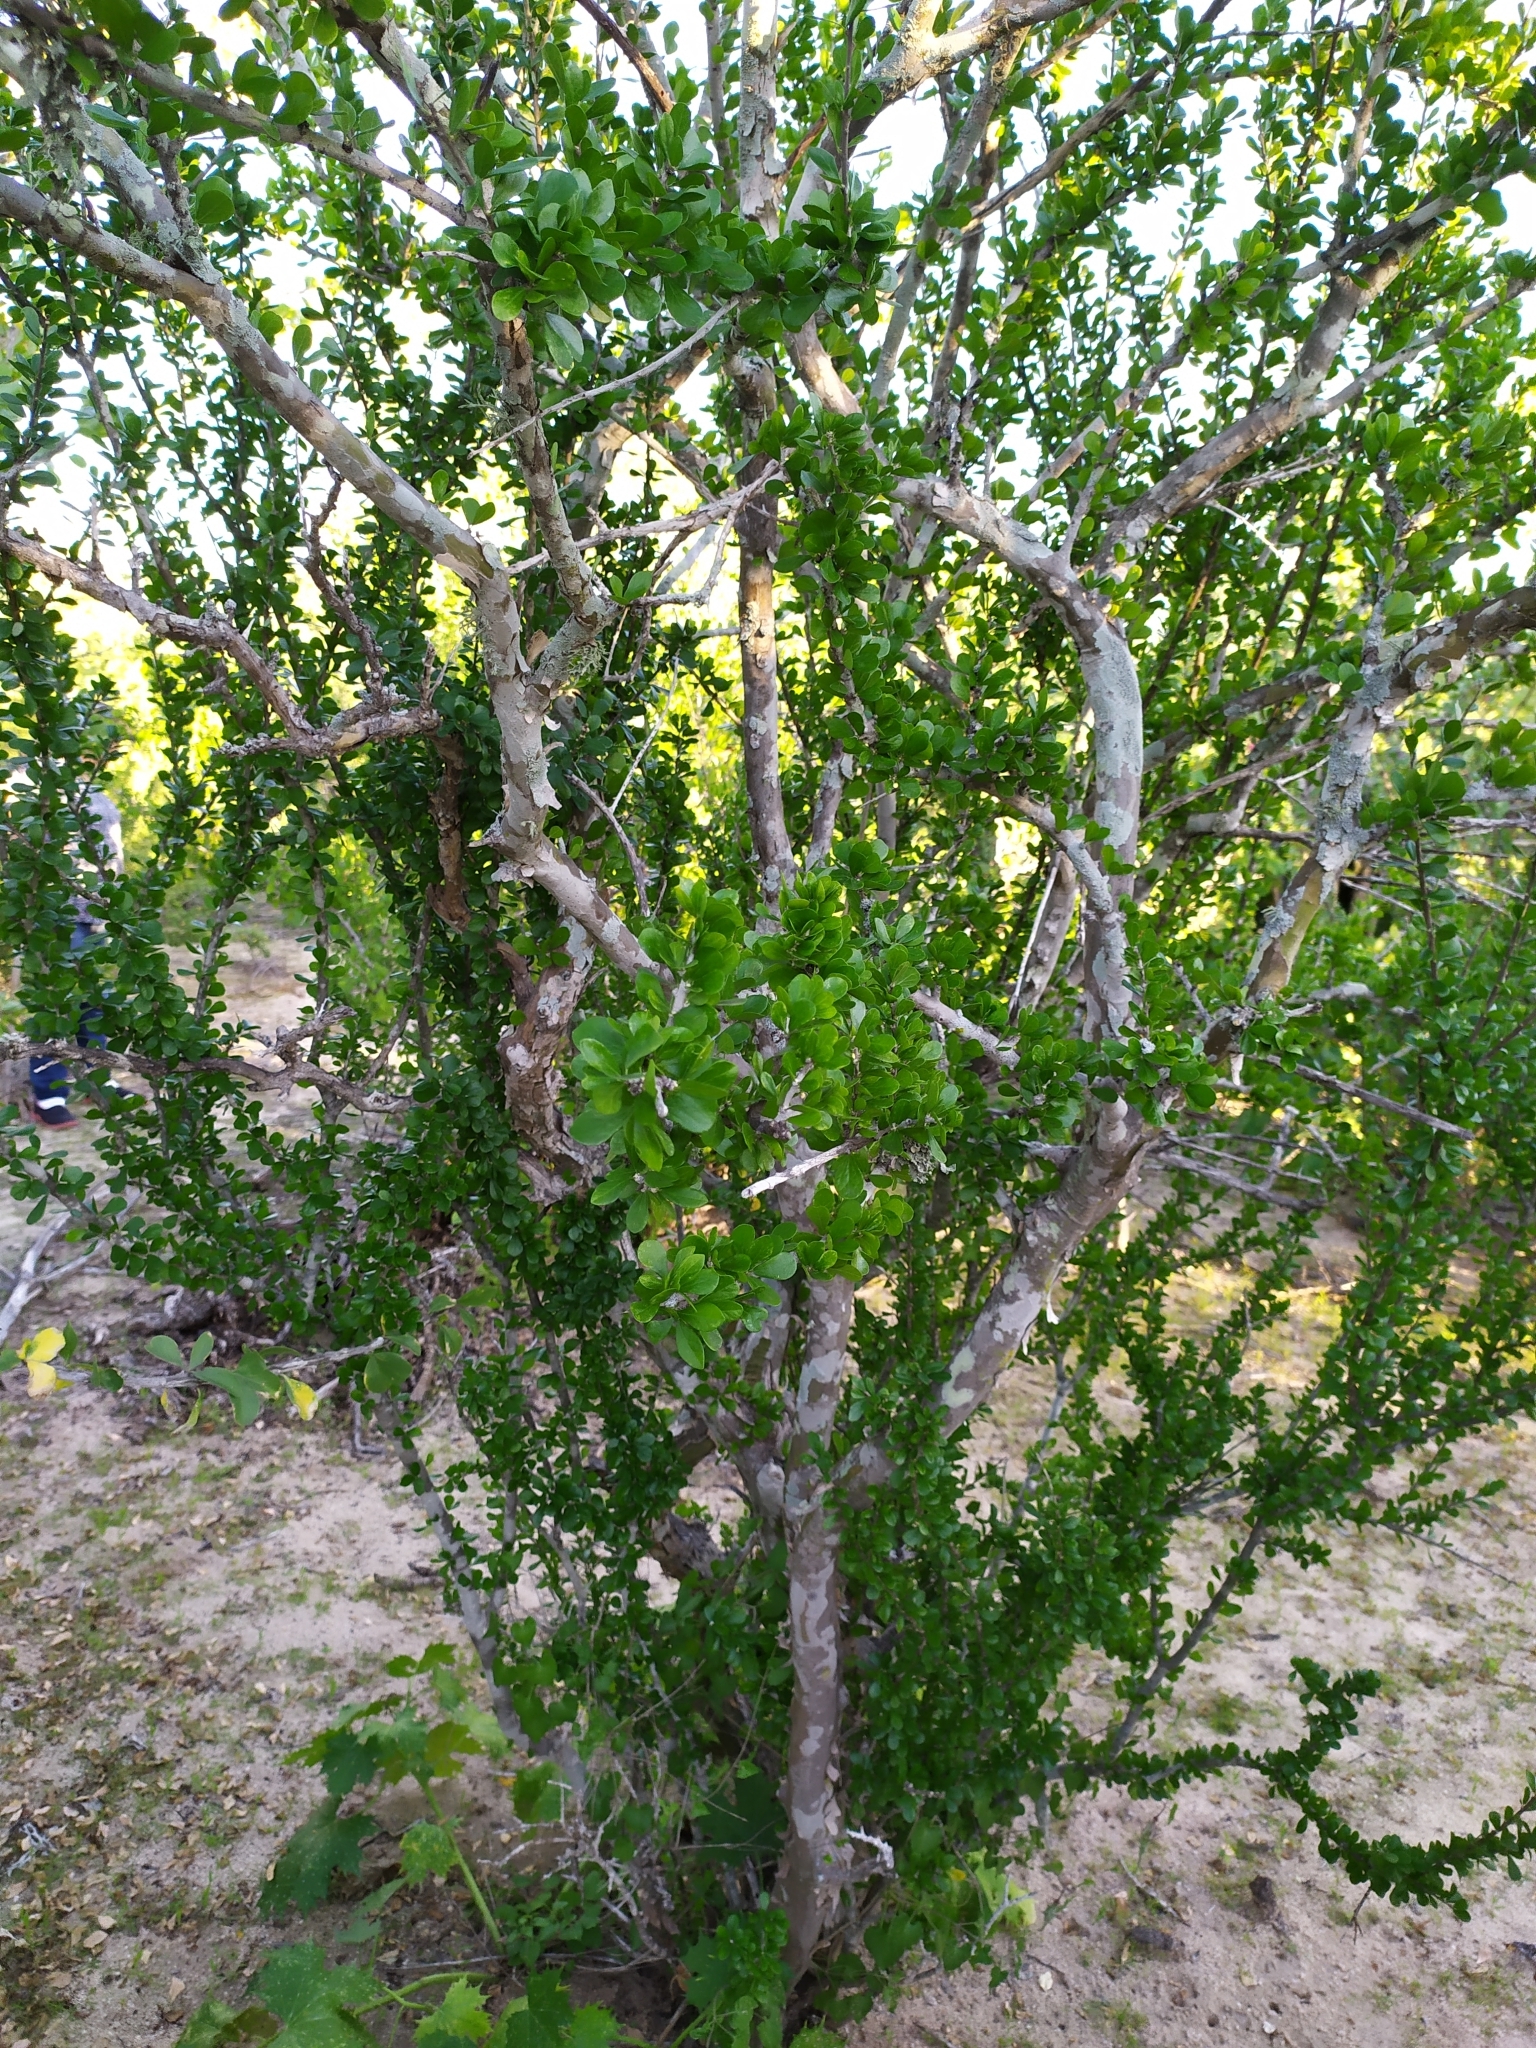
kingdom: Plantae
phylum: Tracheophyta
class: Magnoliopsida
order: Malpighiales
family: Euphorbiaceae
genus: Adelia
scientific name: Adelia brandegeei
